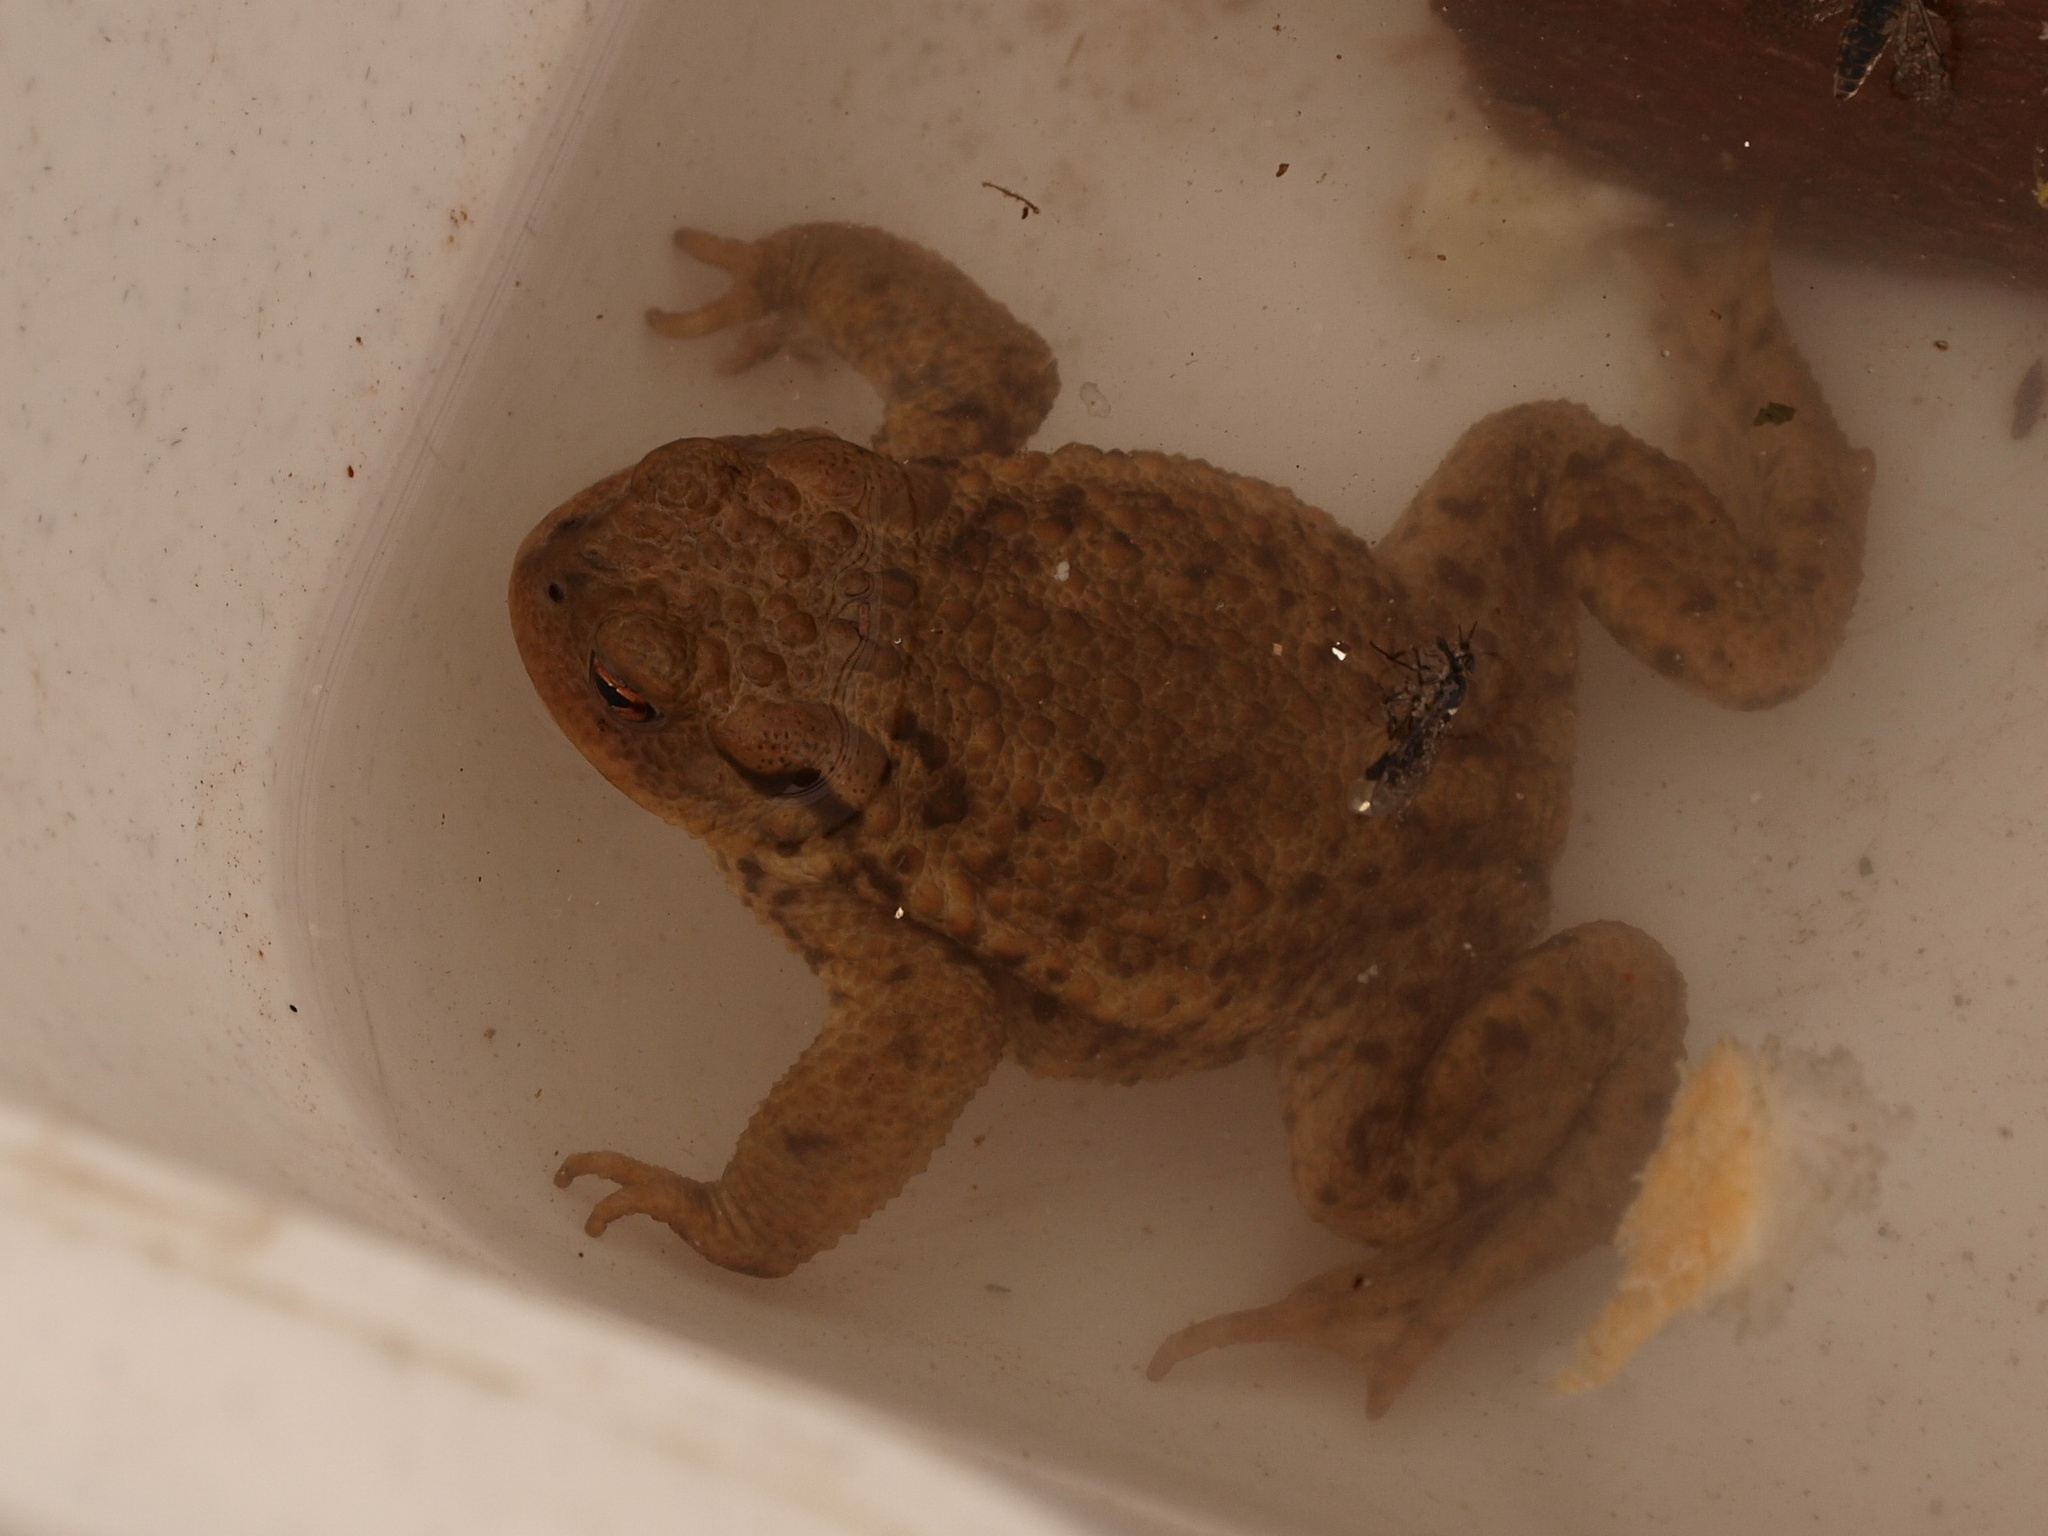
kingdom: Animalia
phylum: Chordata
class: Amphibia
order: Anura
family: Bufonidae
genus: Bufo
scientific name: Bufo bufo
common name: Common toad
